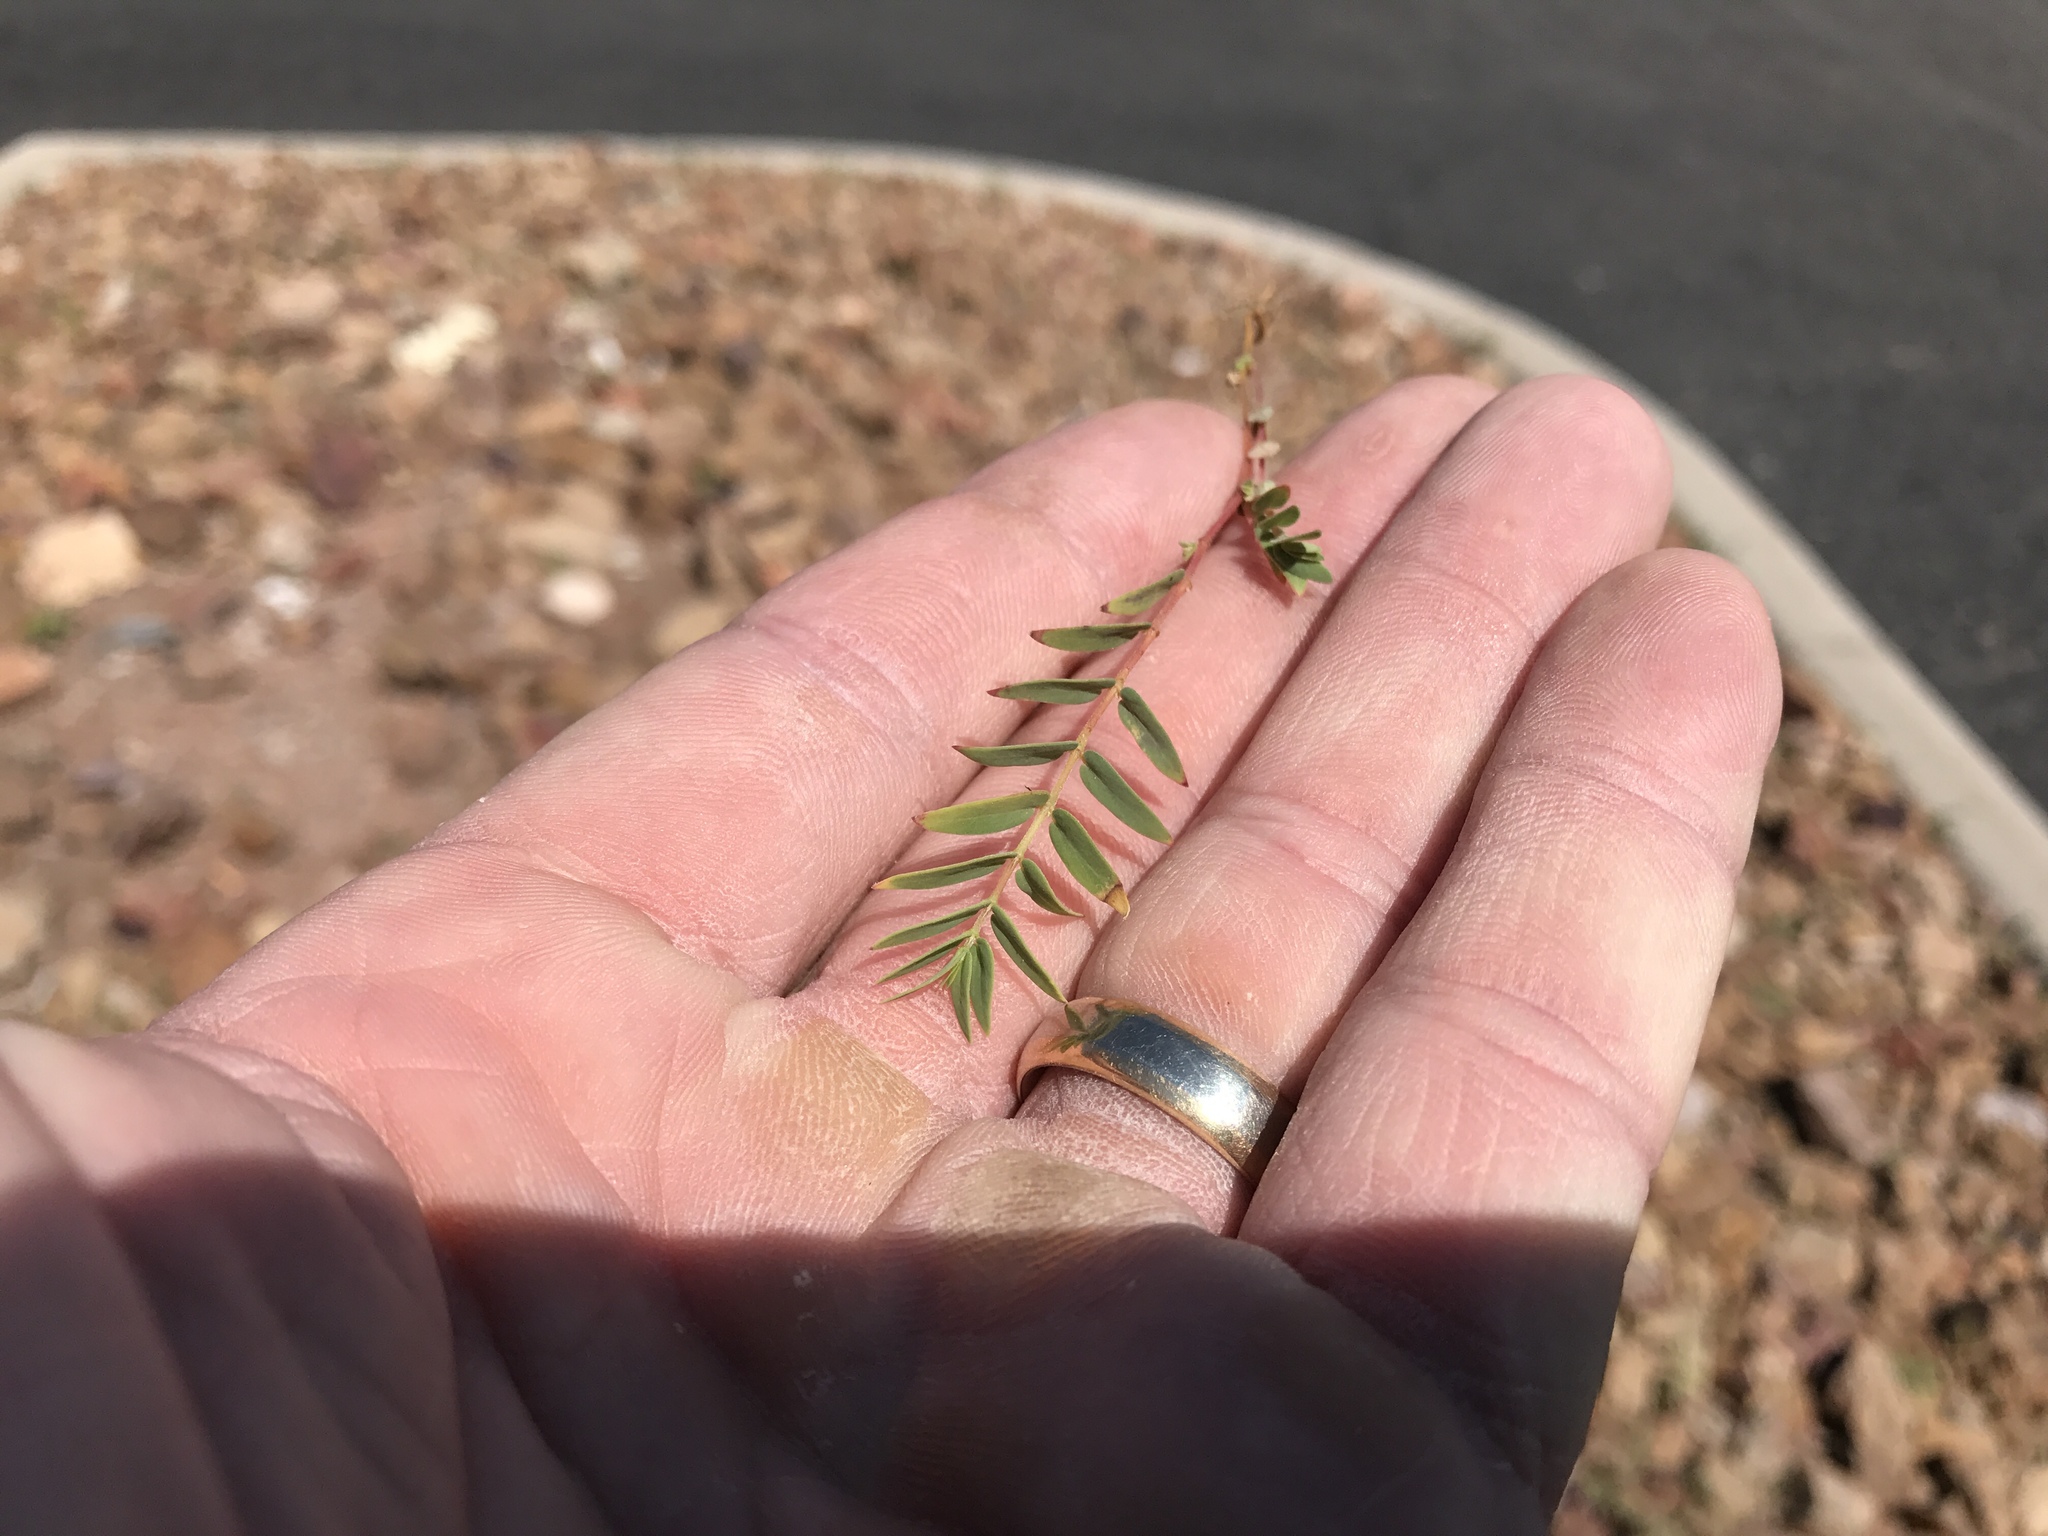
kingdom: Plantae
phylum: Tracheophyta
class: Magnoliopsida
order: Malpighiales
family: Euphorbiaceae
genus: Euphorbia
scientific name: Euphorbia capitellata
